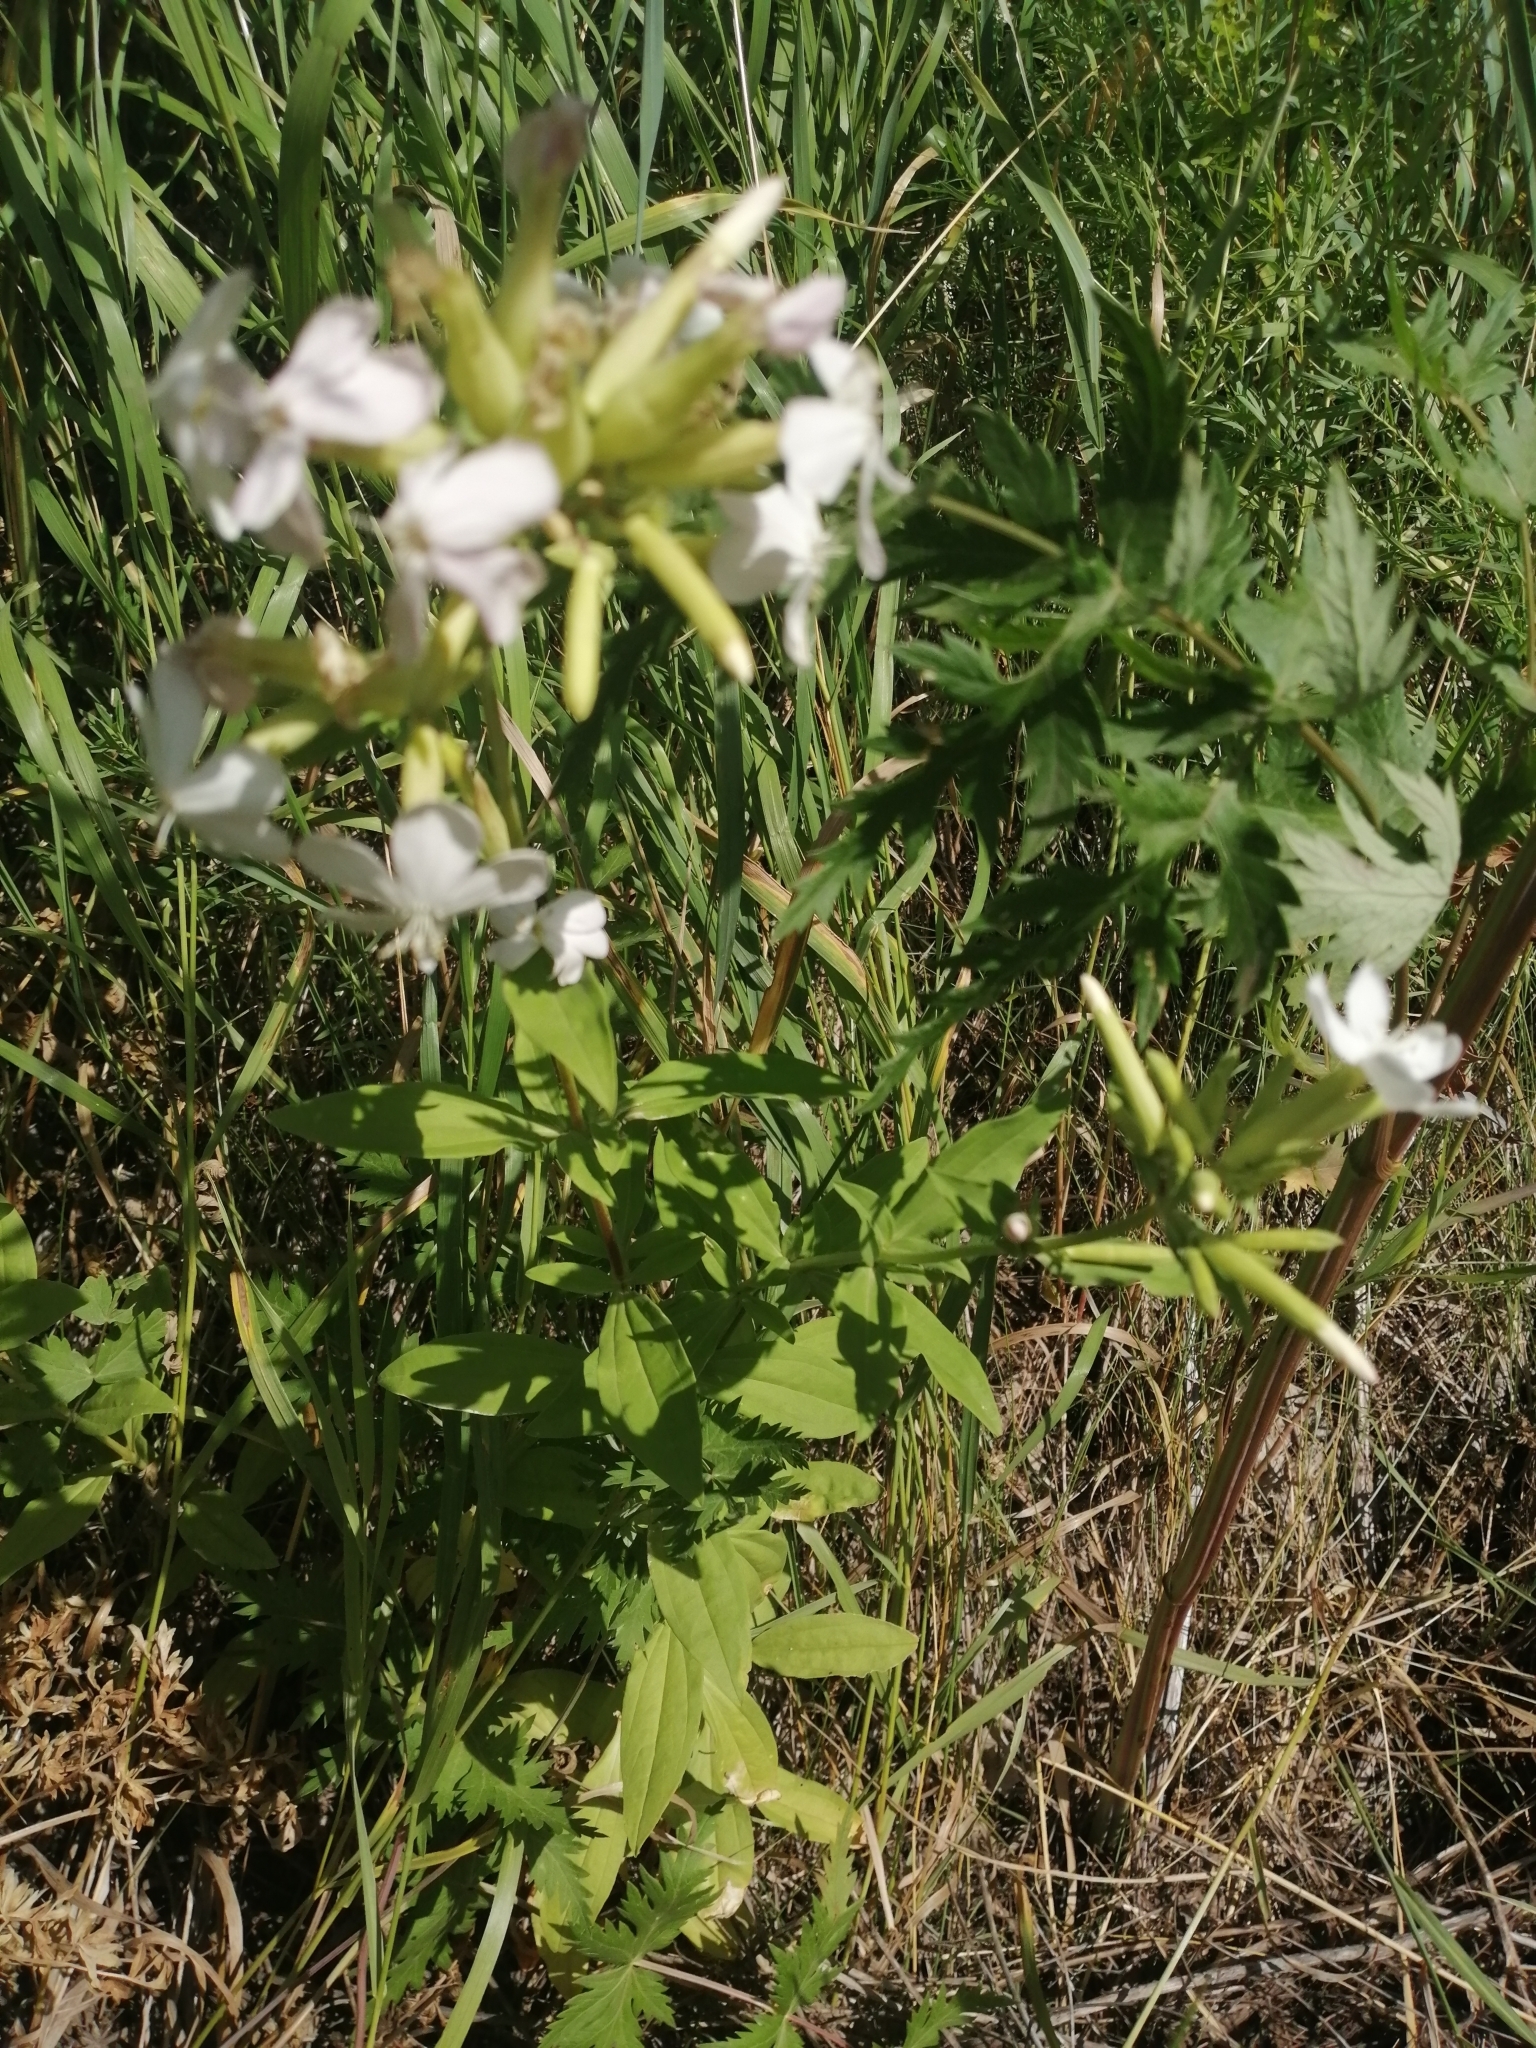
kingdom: Plantae
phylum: Tracheophyta
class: Magnoliopsida
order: Caryophyllales
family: Caryophyllaceae
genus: Saponaria
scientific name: Saponaria officinalis
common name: Soapwort
